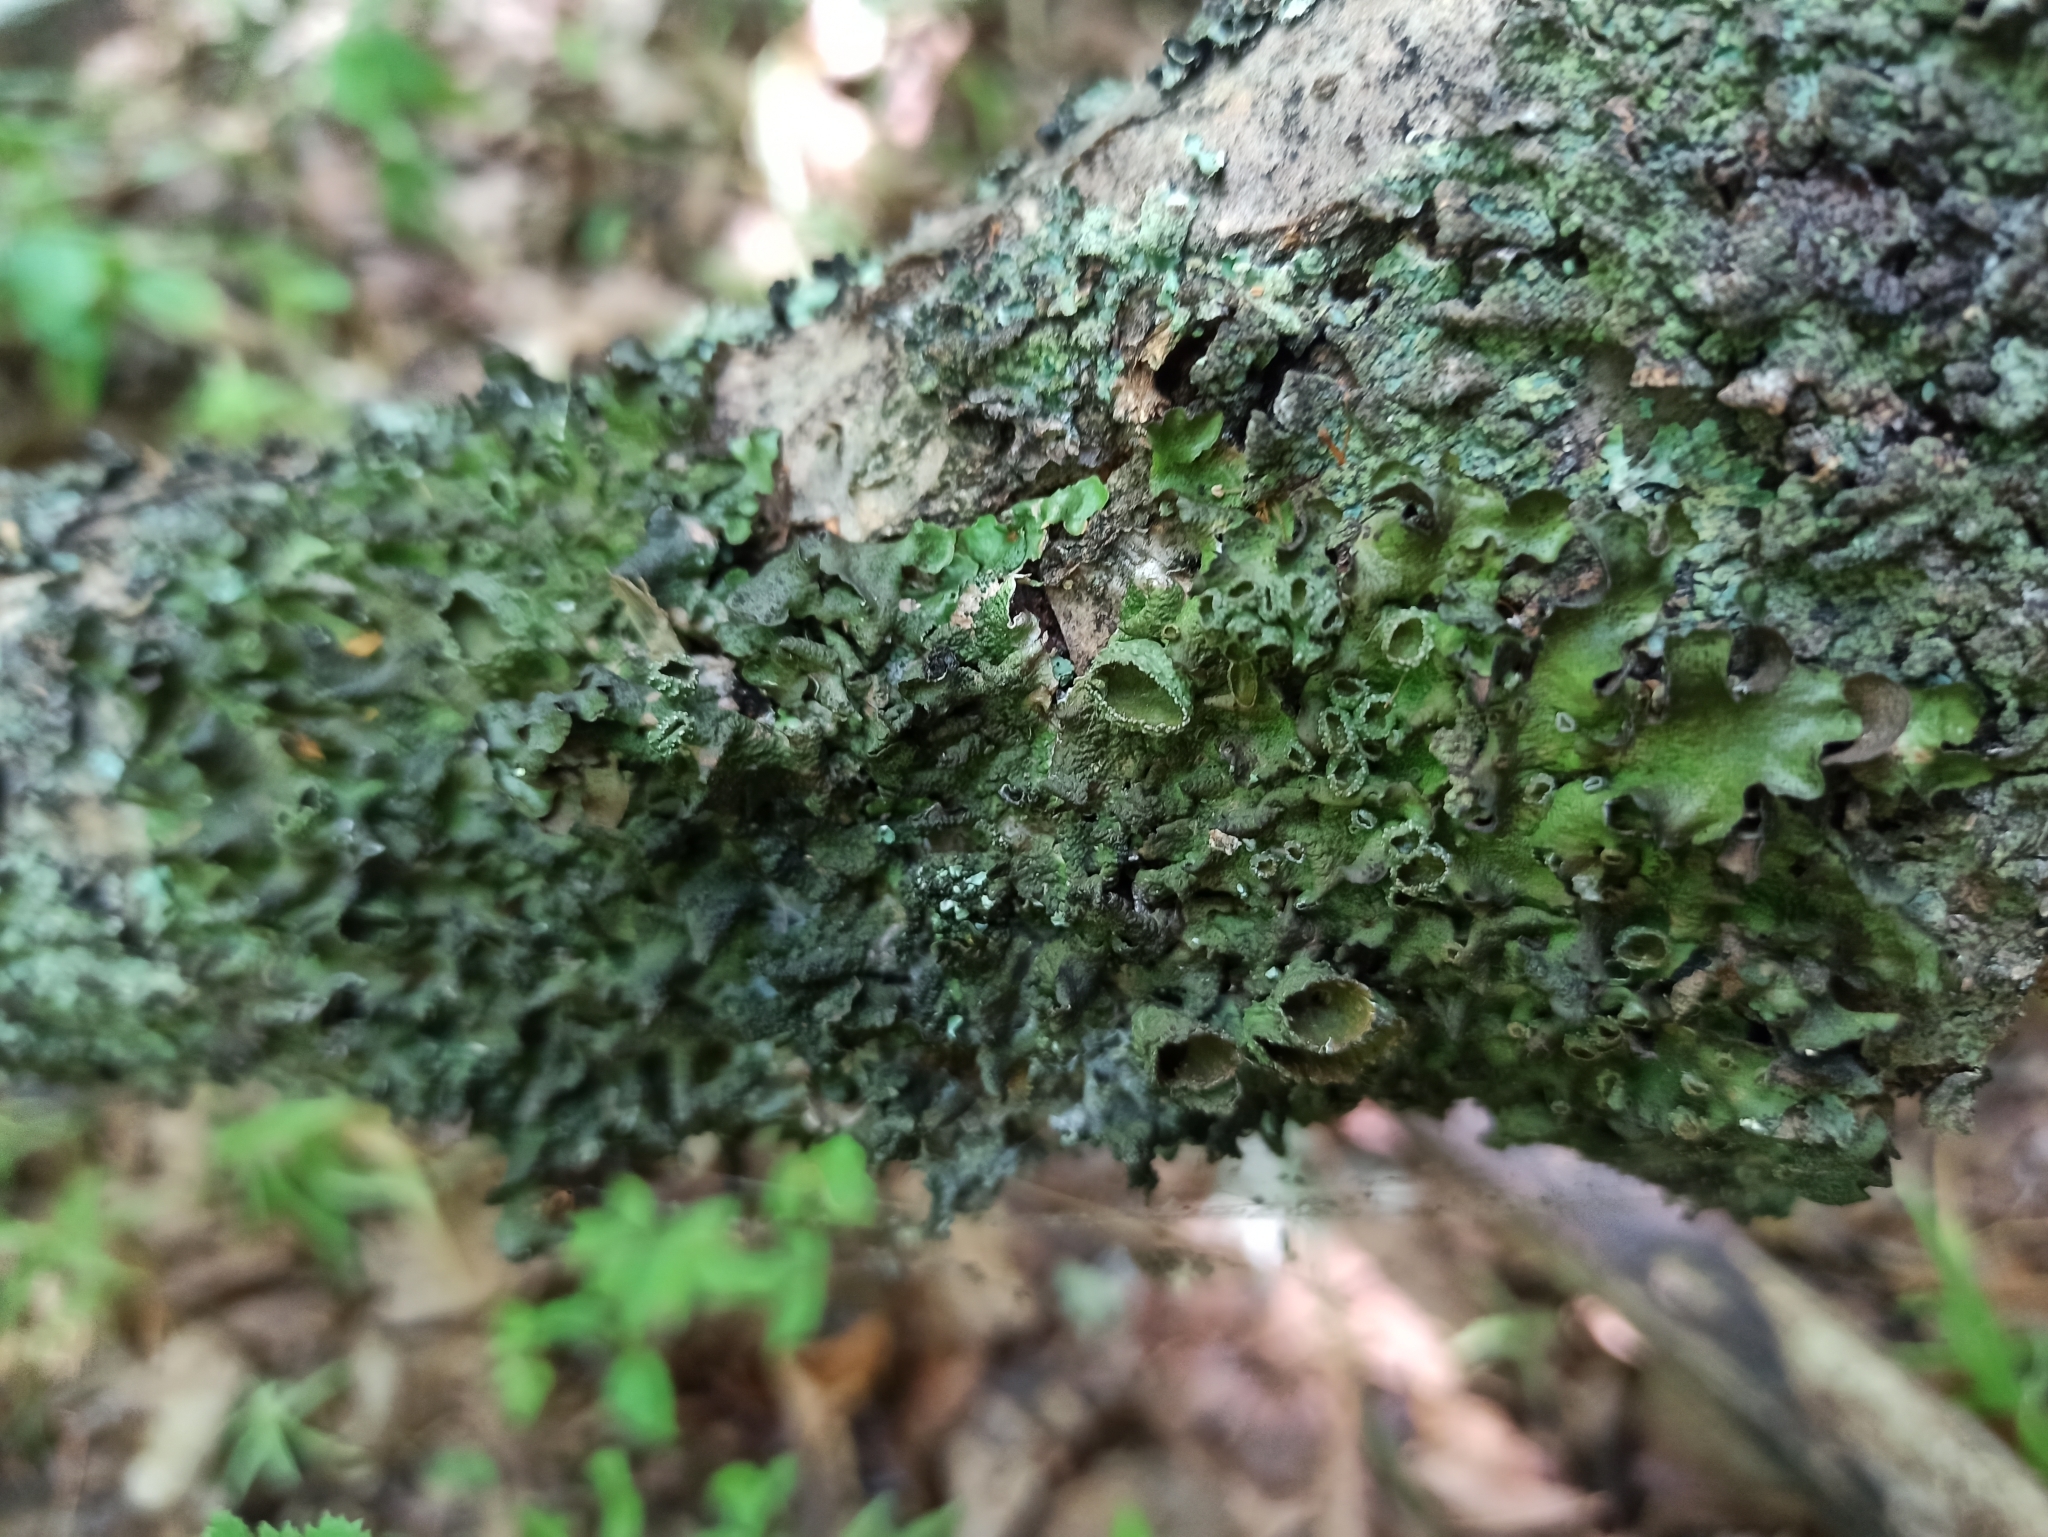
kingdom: Fungi
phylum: Ascomycota
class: Lecanoromycetes
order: Lecanorales
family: Parmeliaceae
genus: Pleurosticta
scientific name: Pleurosticta acetabulum
